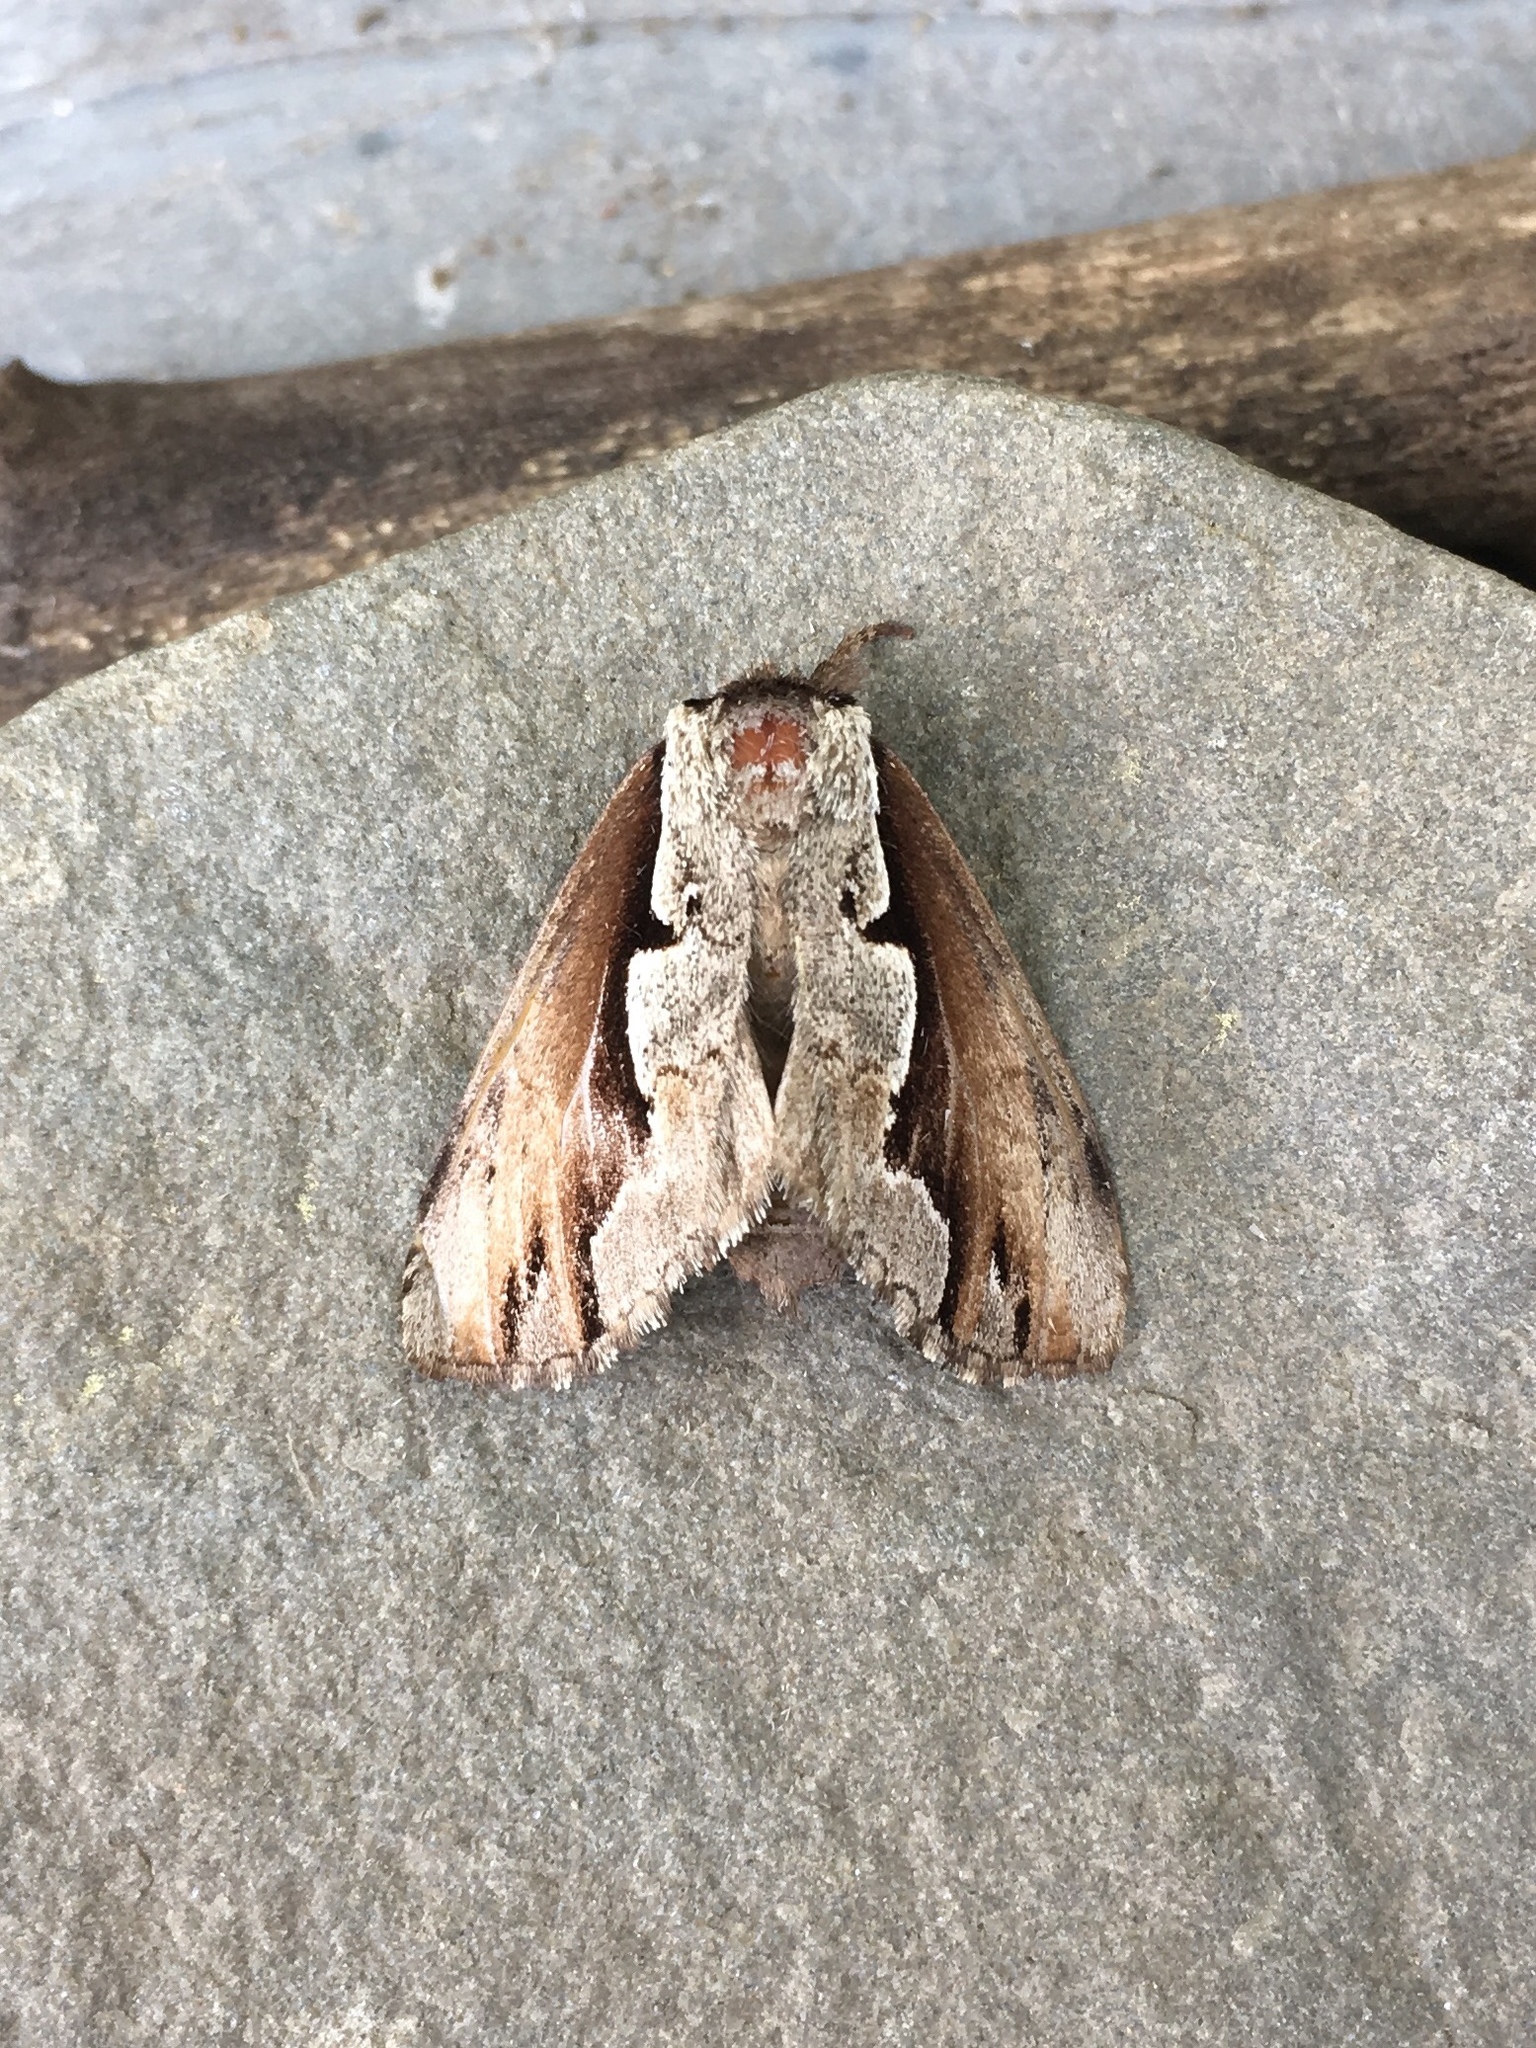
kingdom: Animalia
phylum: Arthropoda
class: Insecta
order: Lepidoptera
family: Notodontidae
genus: Nerice
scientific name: Nerice bidentata
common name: Double-toothed prominent
